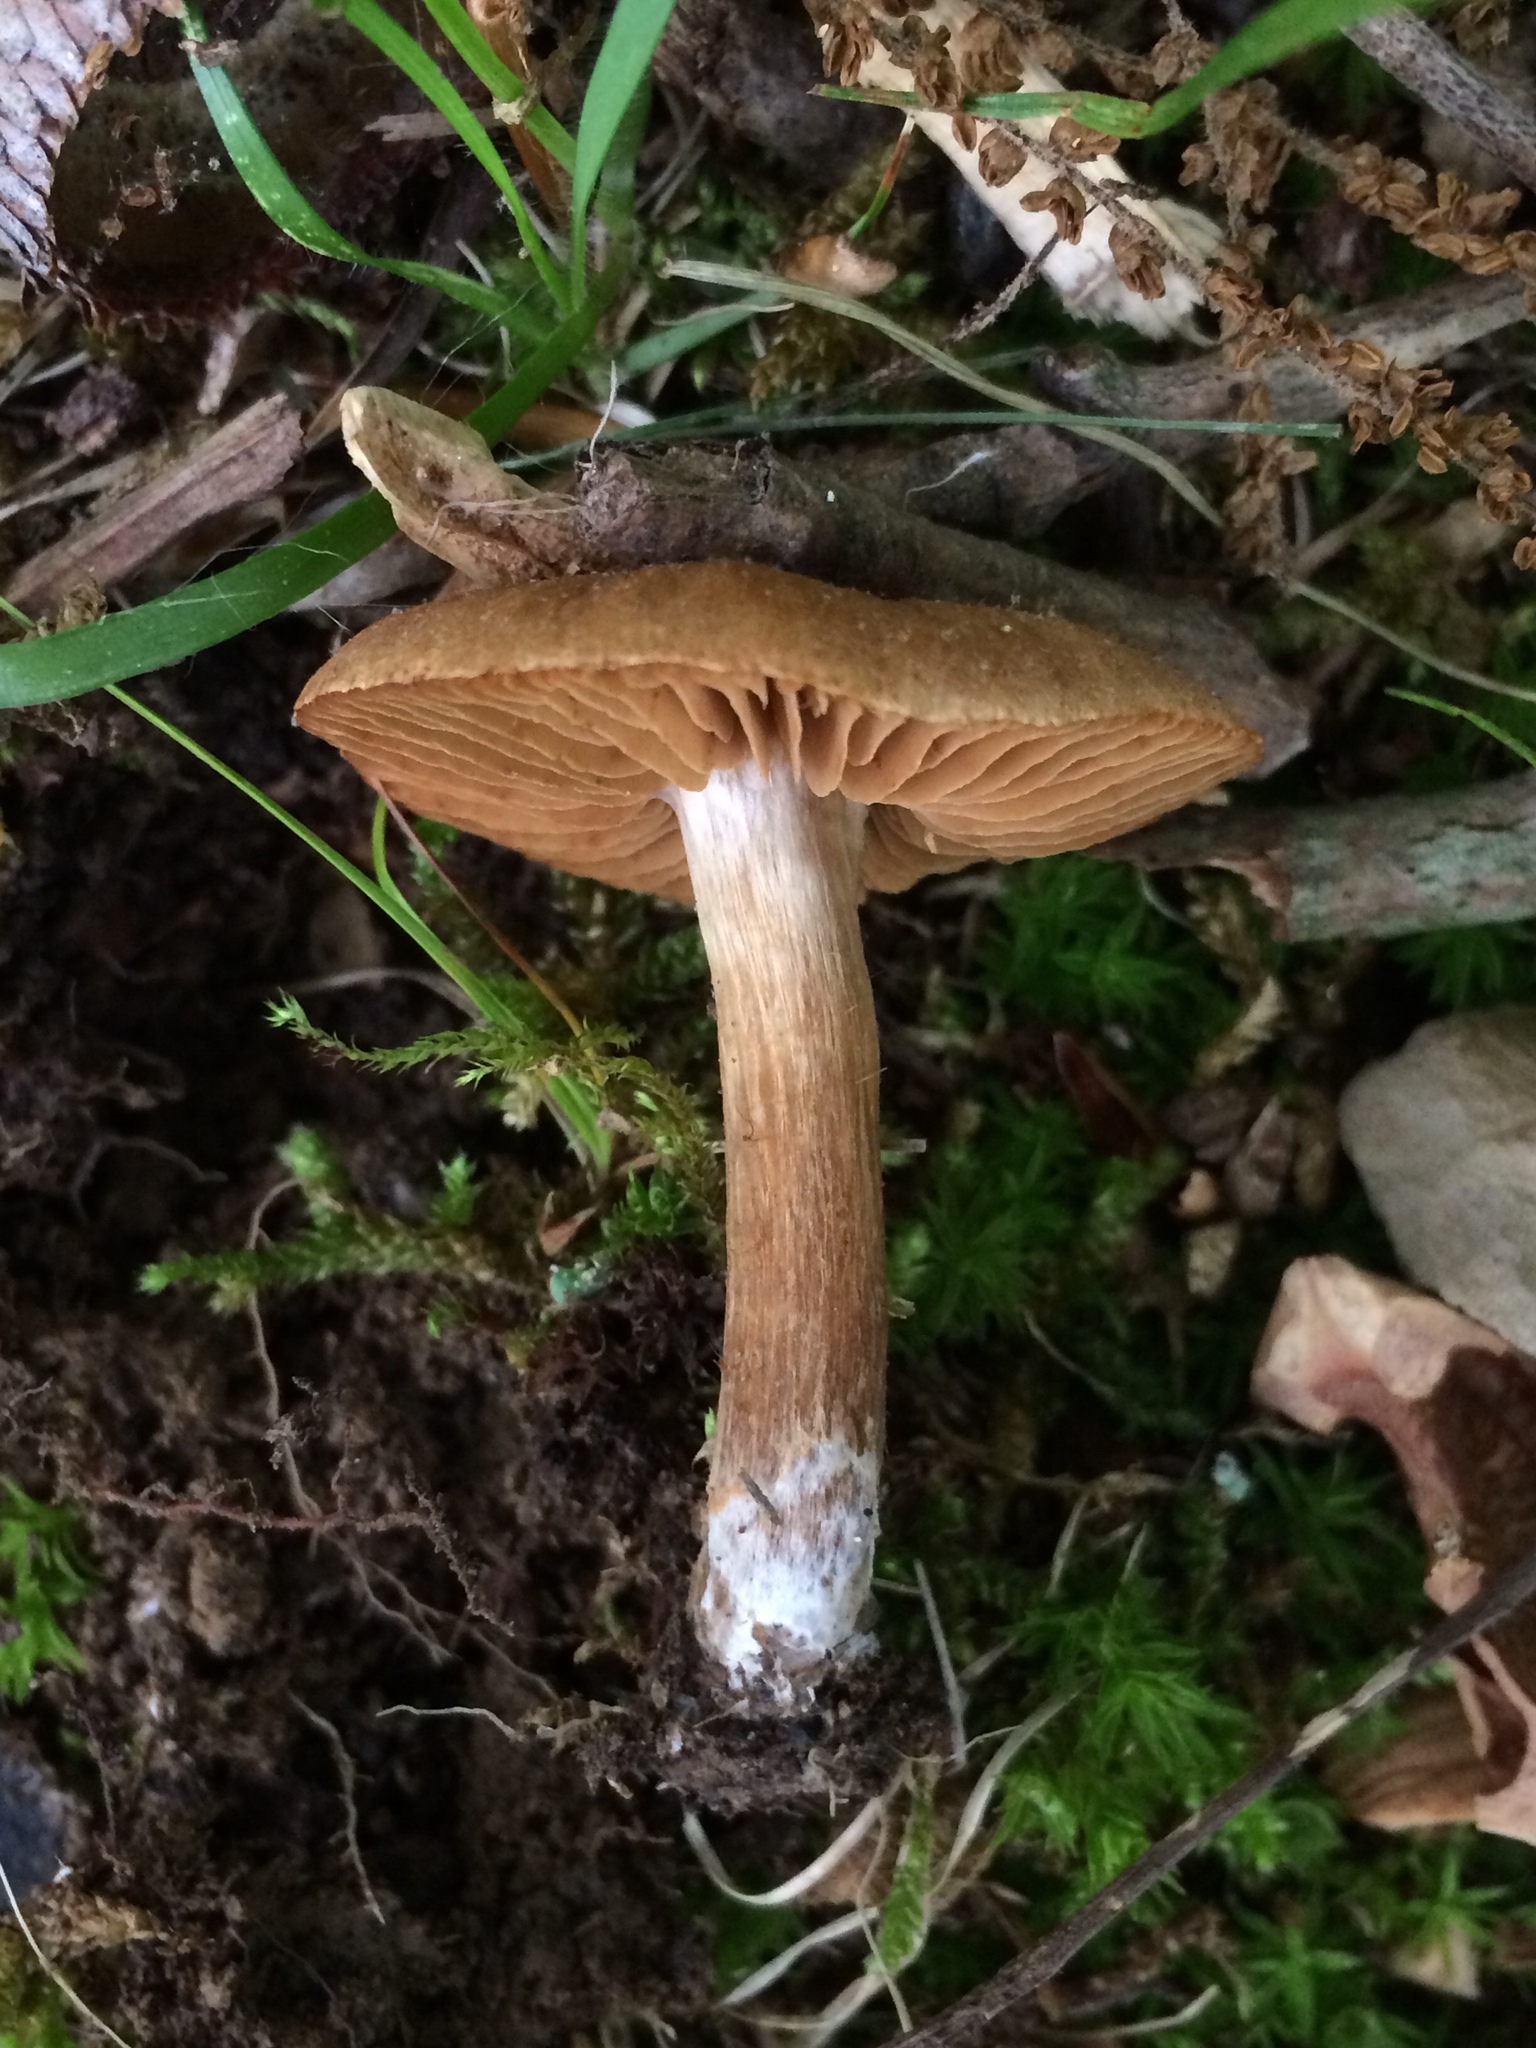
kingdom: Fungi
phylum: Basidiomycota
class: Agaricomycetes
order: Agaricales
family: Psathyrellaceae
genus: Lacrymaria
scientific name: Lacrymaria lacrymabunda
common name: Weeping widow
